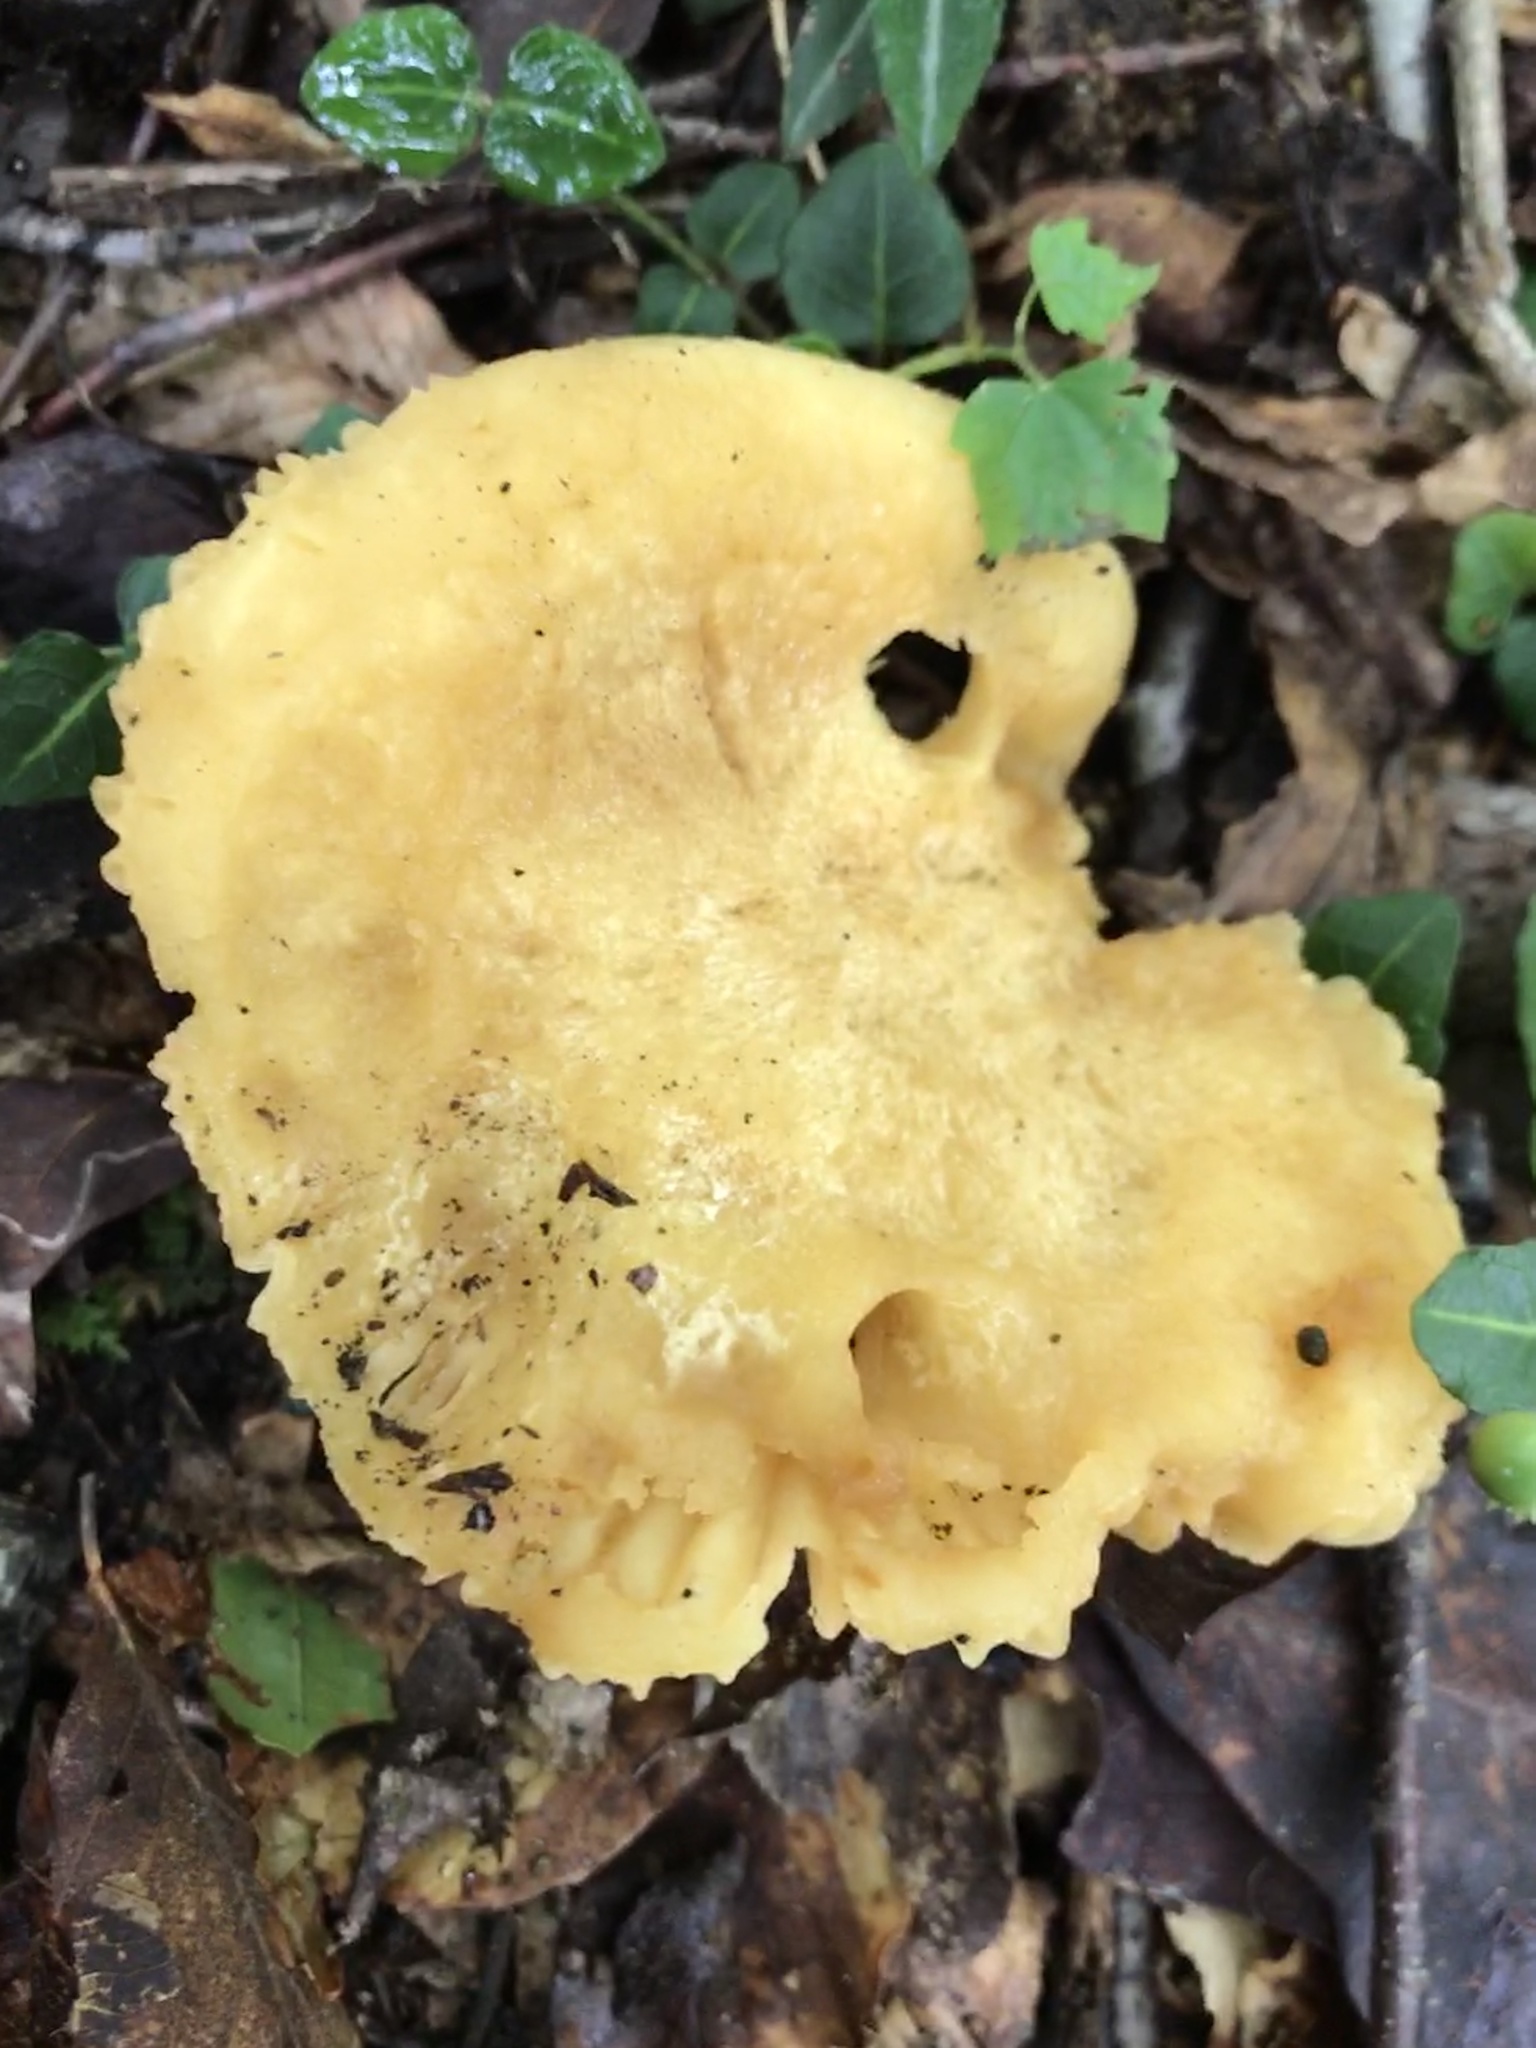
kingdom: Fungi
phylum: Basidiomycota
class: Agaricomycetes
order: Russulales
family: Russulaceae
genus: Russula
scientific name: Russula earlei
